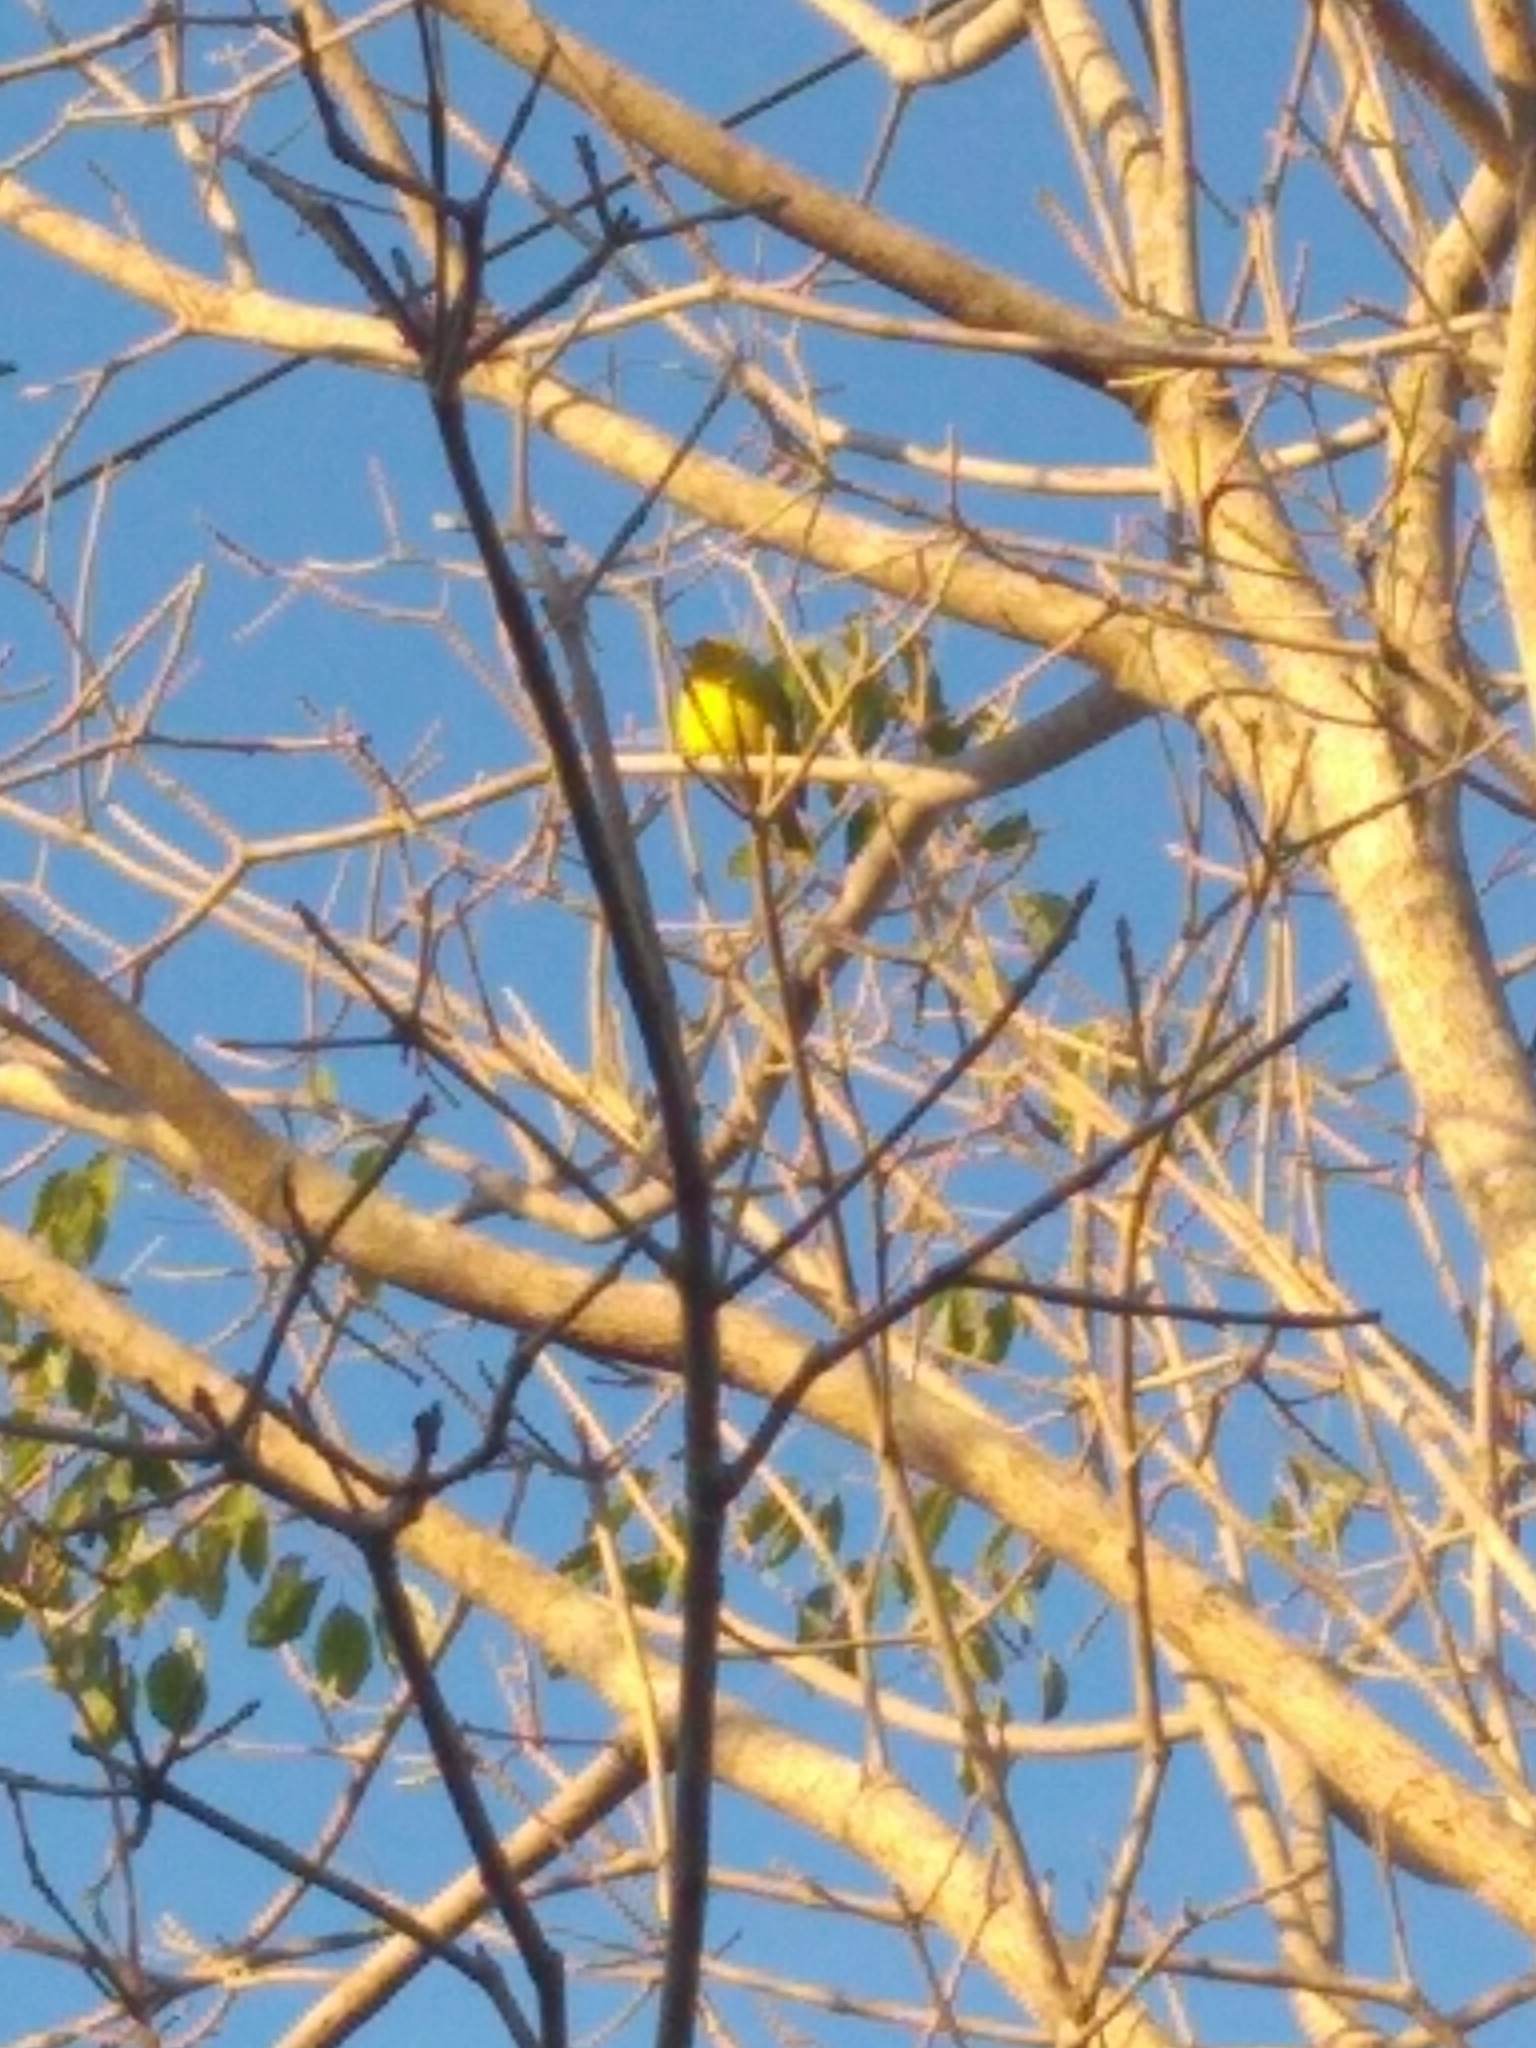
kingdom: Animalia
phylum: Chordata
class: Aves
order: Passeriformes
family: Thraupidae
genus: Sicalis
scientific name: Sicalis flaveola
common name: Saffron finch
